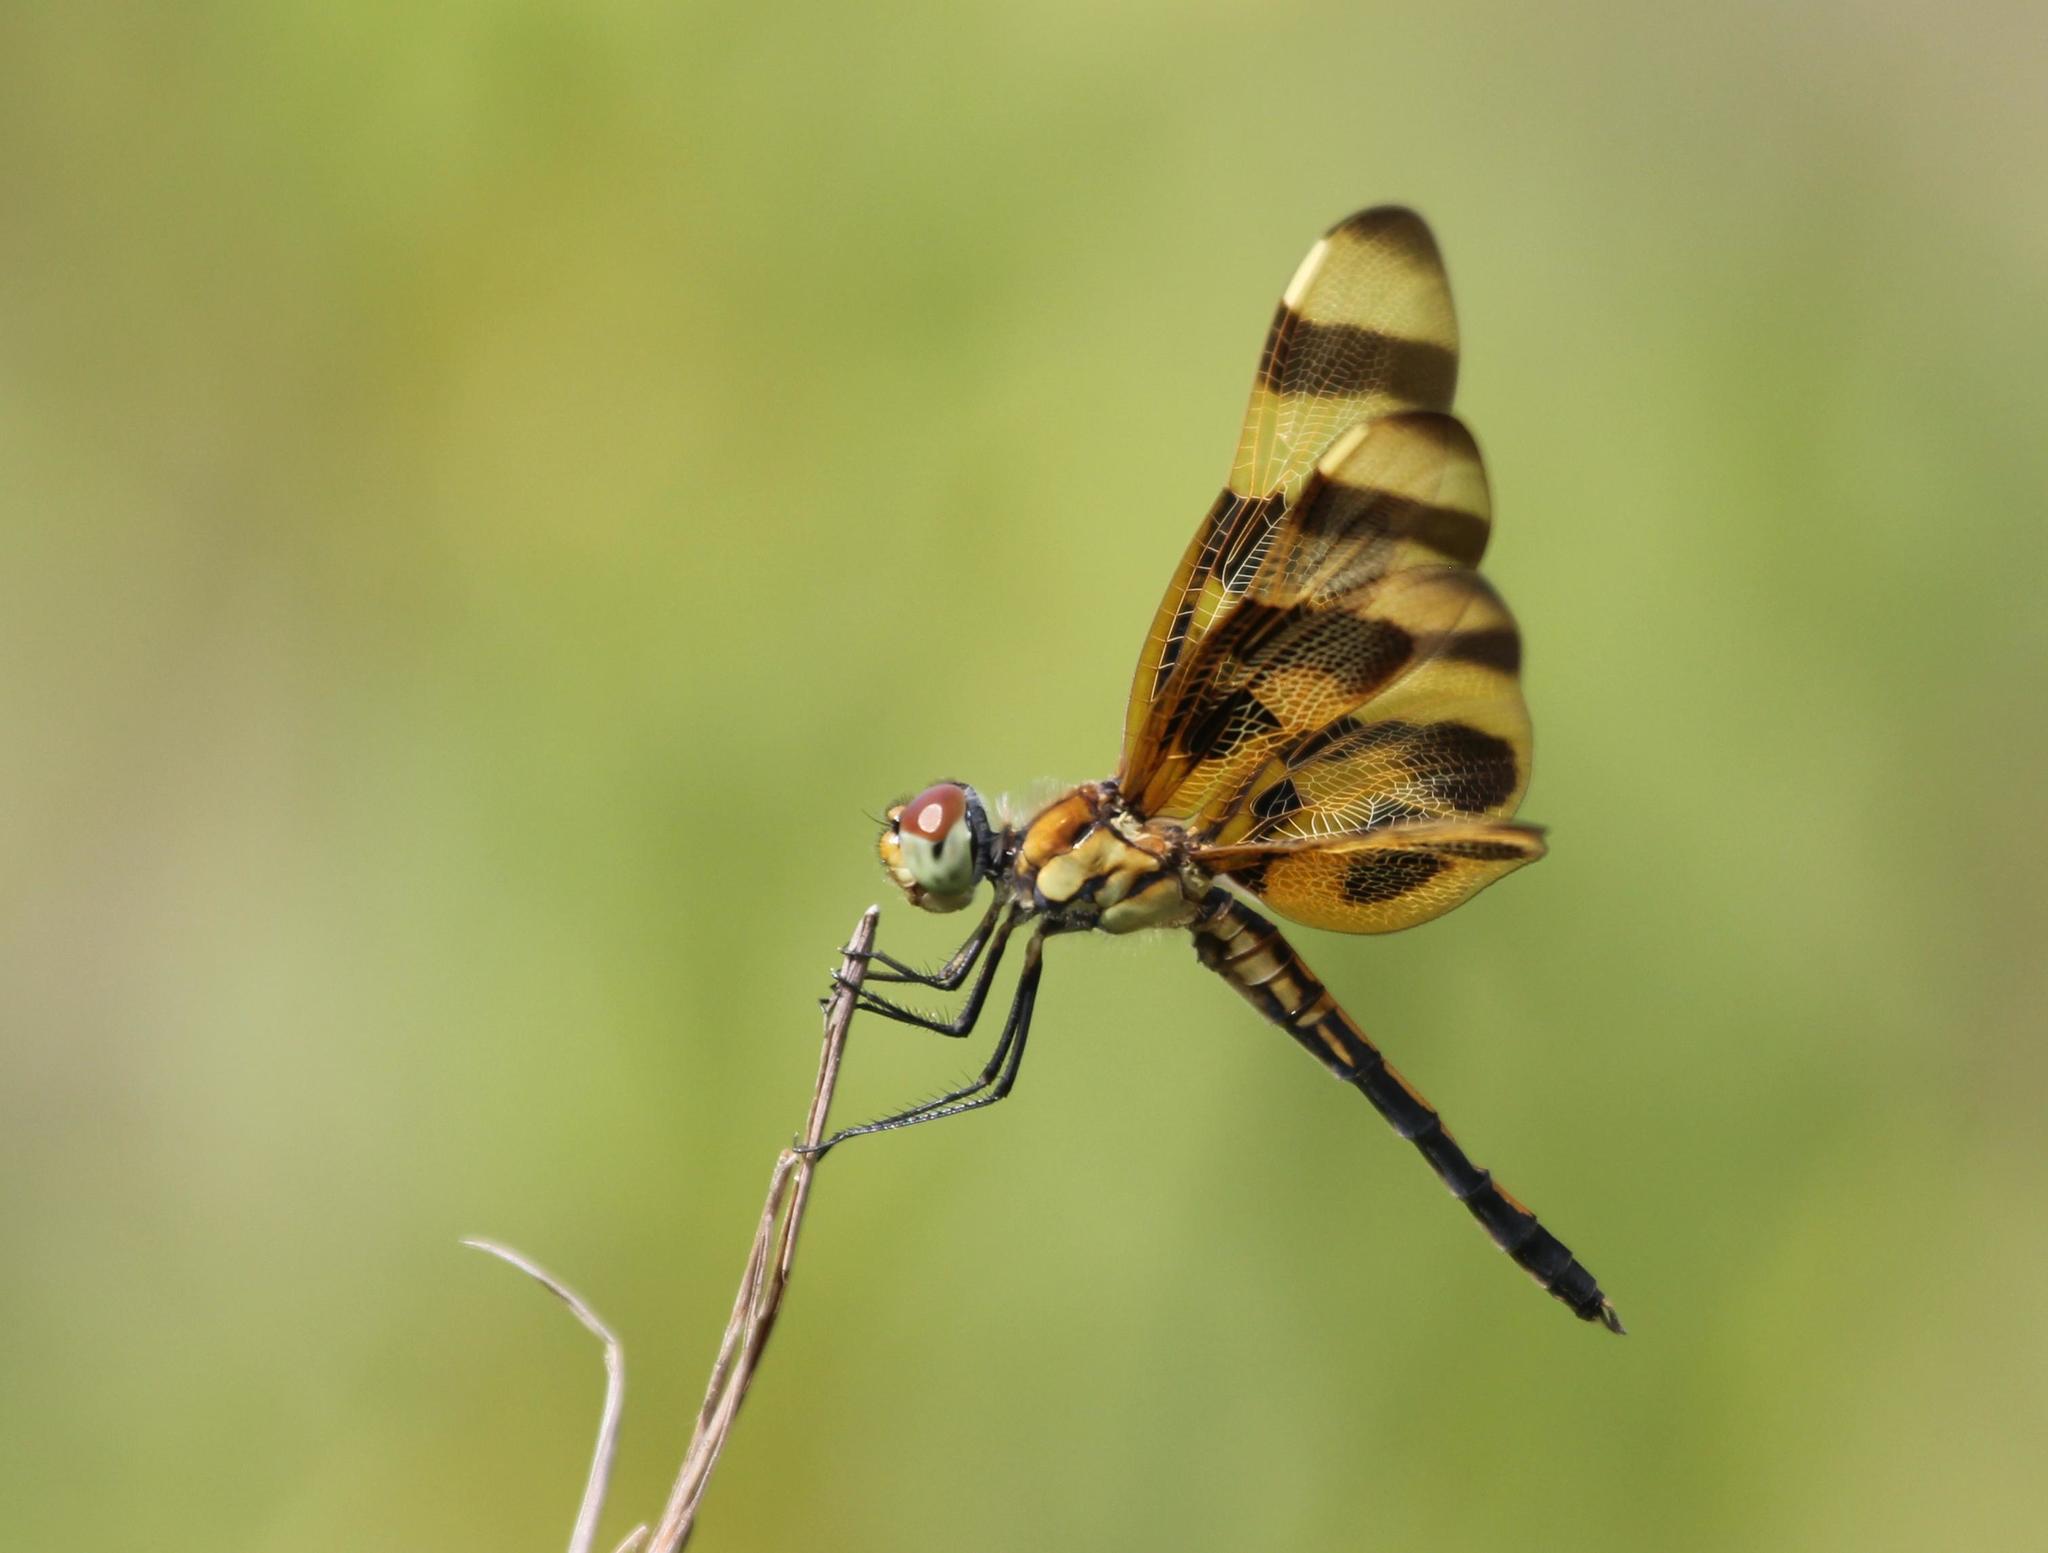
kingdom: Animalia
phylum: Arthropoda
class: Insecta
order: Odonata
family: Libellulidae
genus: Celithemis
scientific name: Celithemis eponina
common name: Halloween pennant
